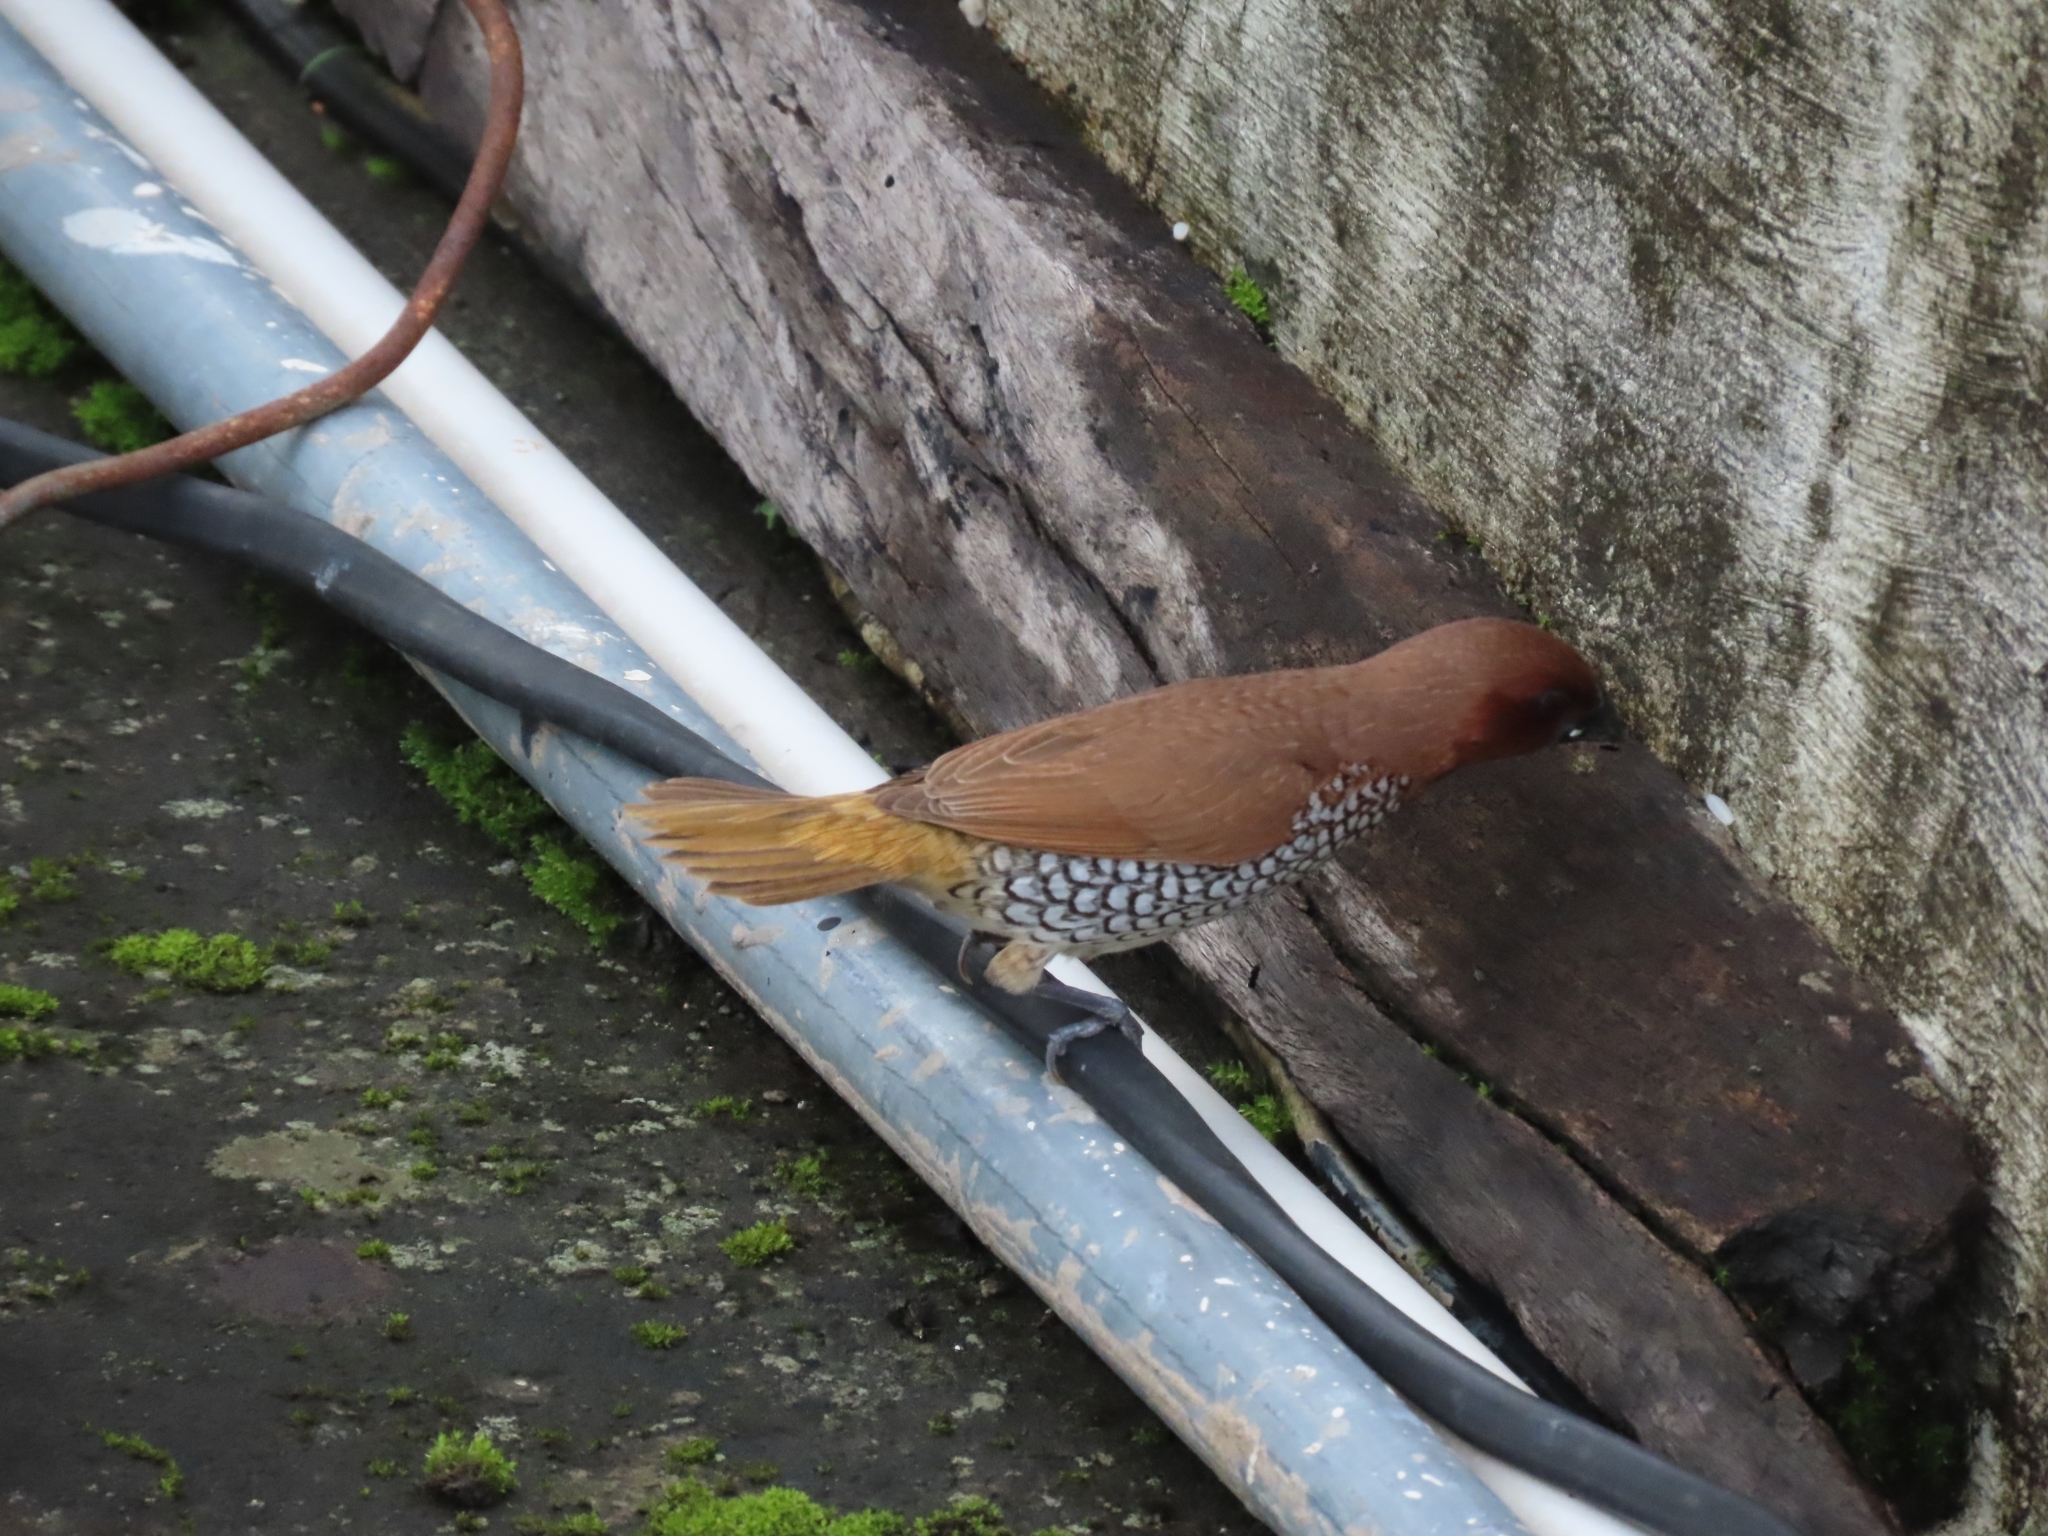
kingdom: Animalia
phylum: Chordata
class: Aves
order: Passeriformes
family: Estrildidae
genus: Lonchura
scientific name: Lonchura punctulata
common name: Scaly-breasted munia
